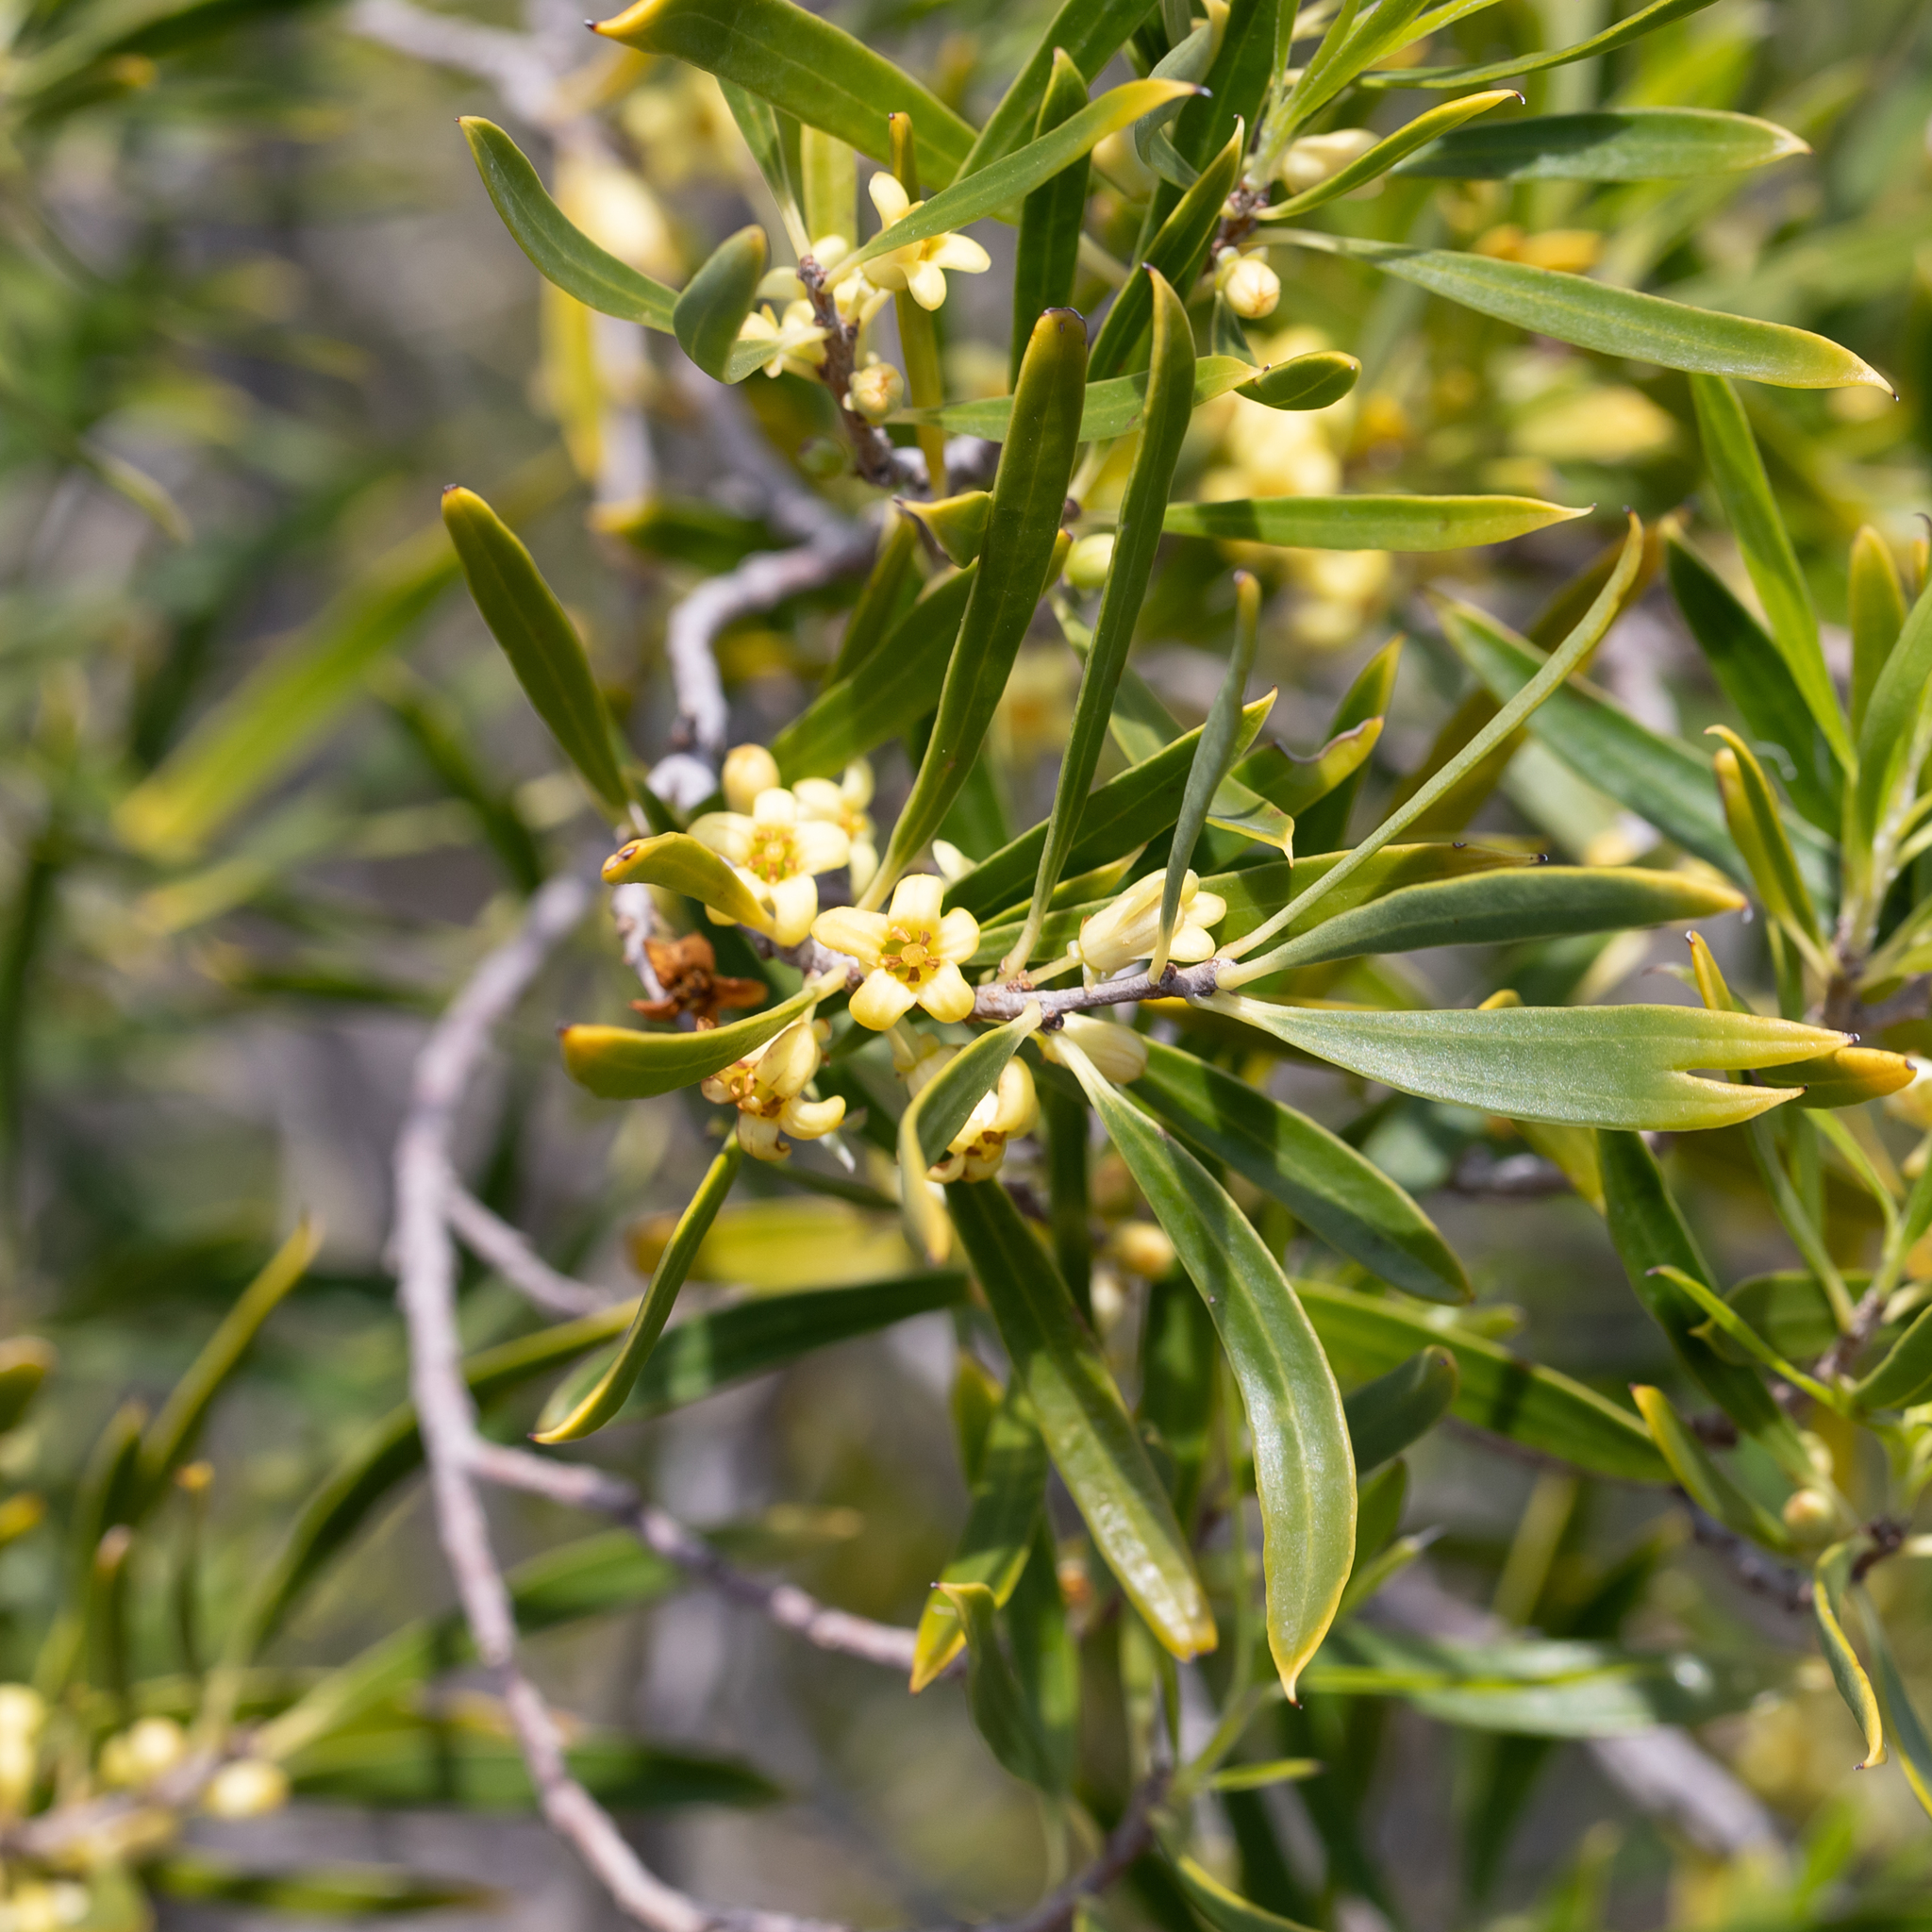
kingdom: Plantae
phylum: Tracheophyta
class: Magnoliopsida
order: Apiales
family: Pittosporaceae
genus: Pittosporum
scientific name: Pittosporum angustifolium
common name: Weeping pittosporum
